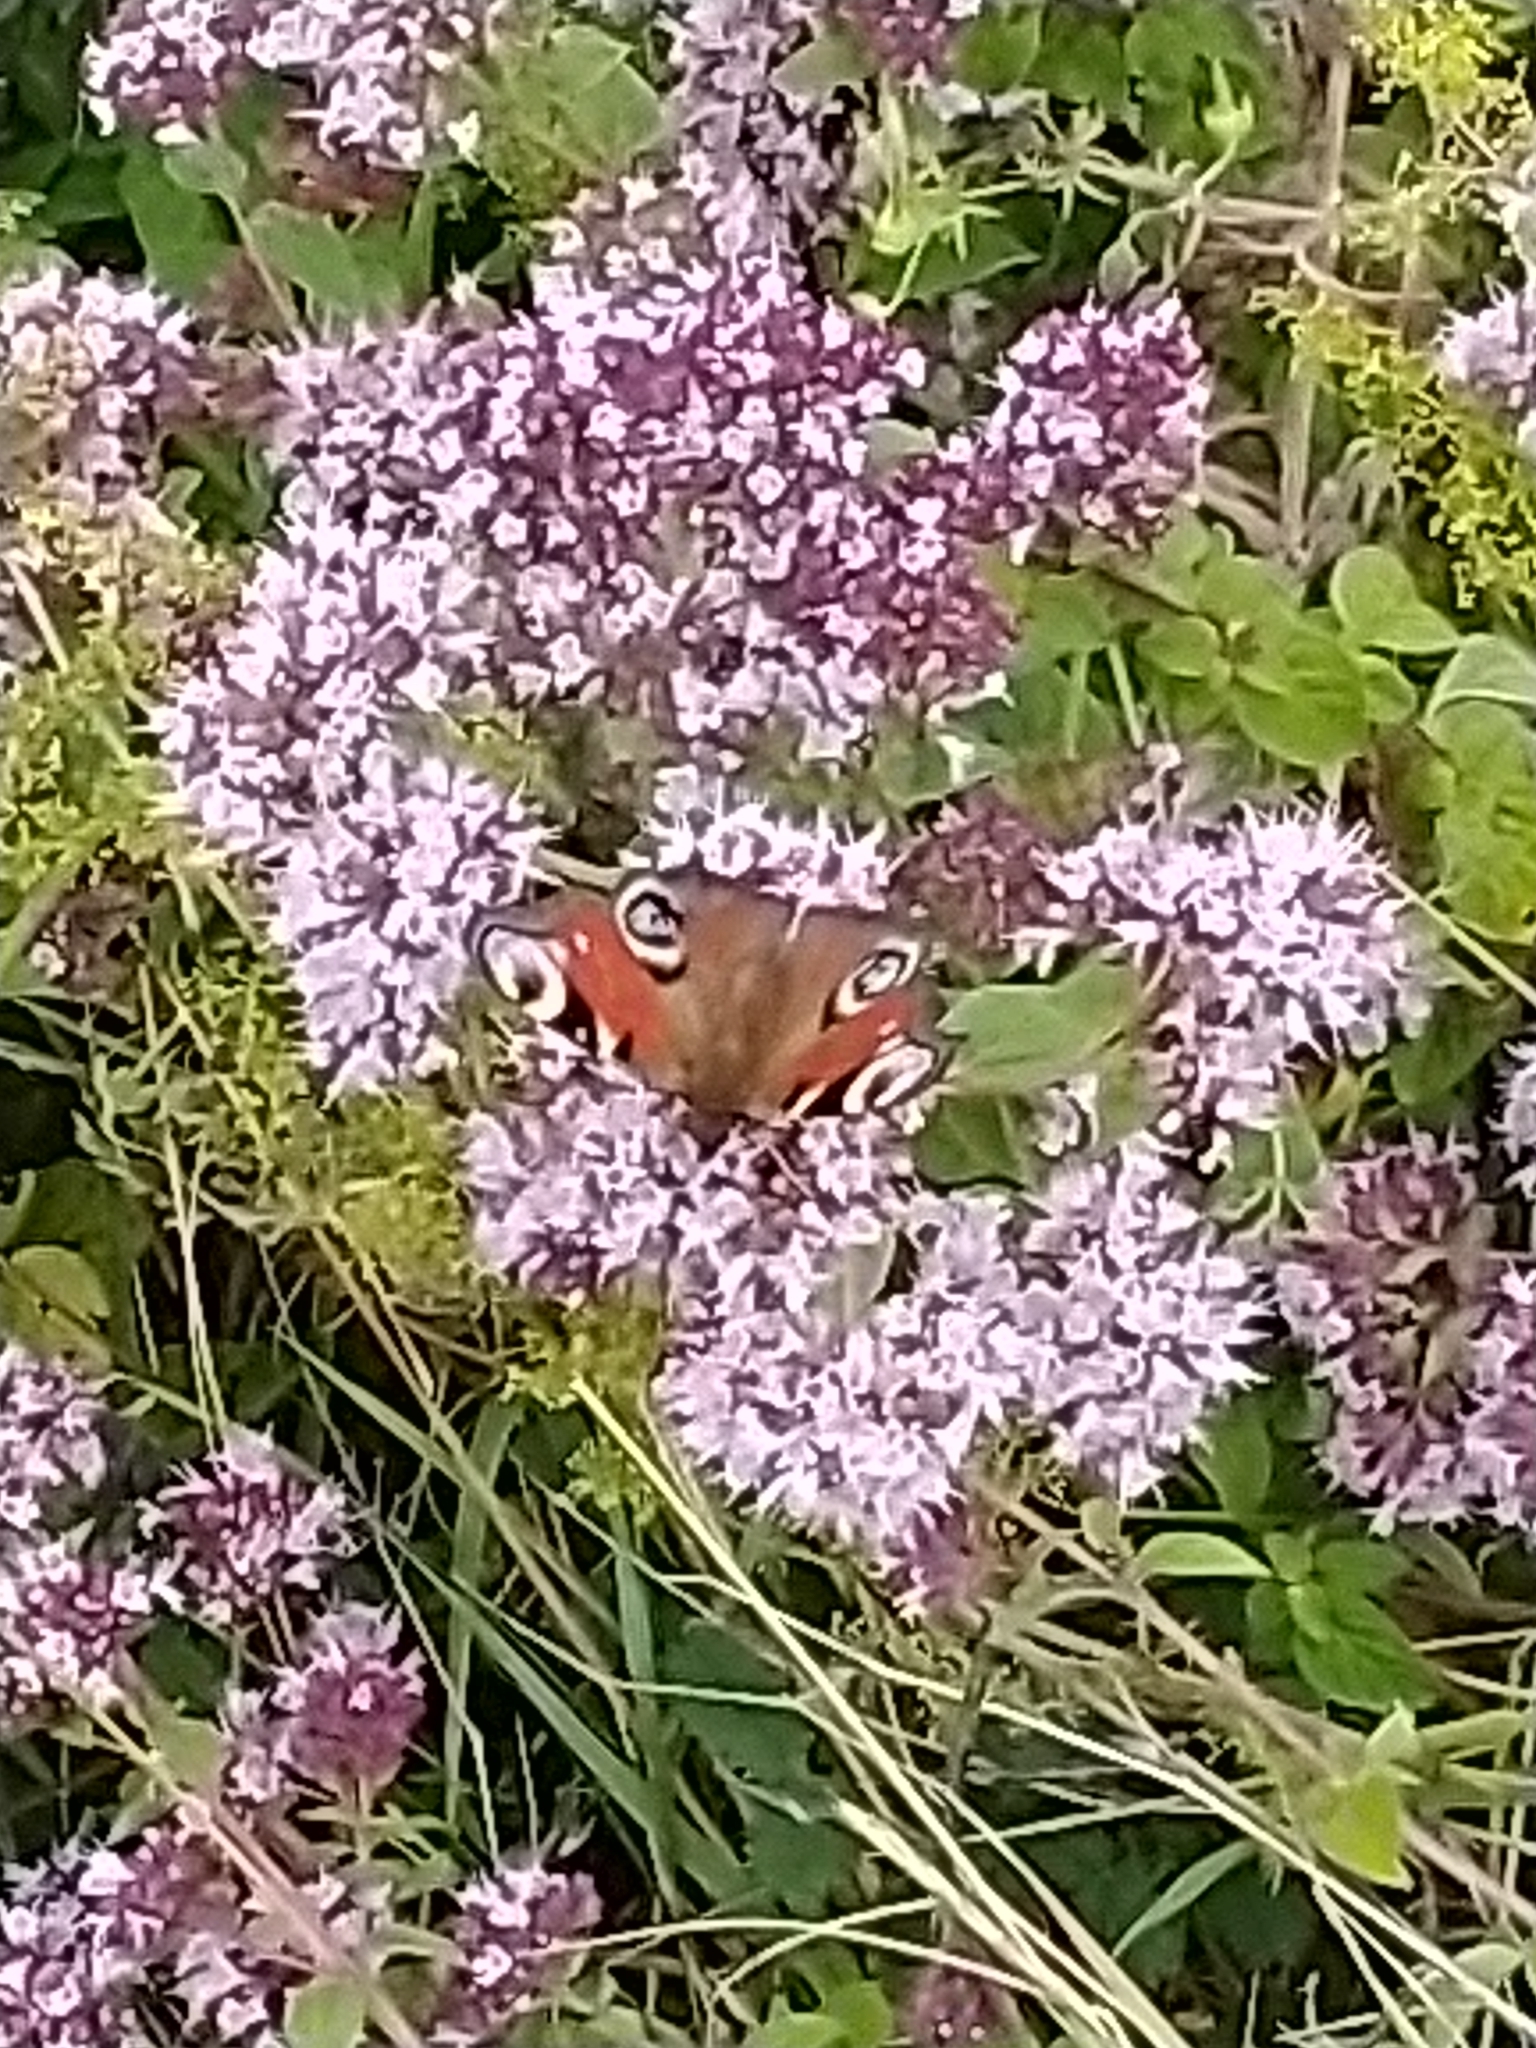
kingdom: Animalia
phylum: Arthropoda
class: Insecta
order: Lepidoptera
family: Nymphalidae
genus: Aglais
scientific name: Aglais io
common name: Peacock
